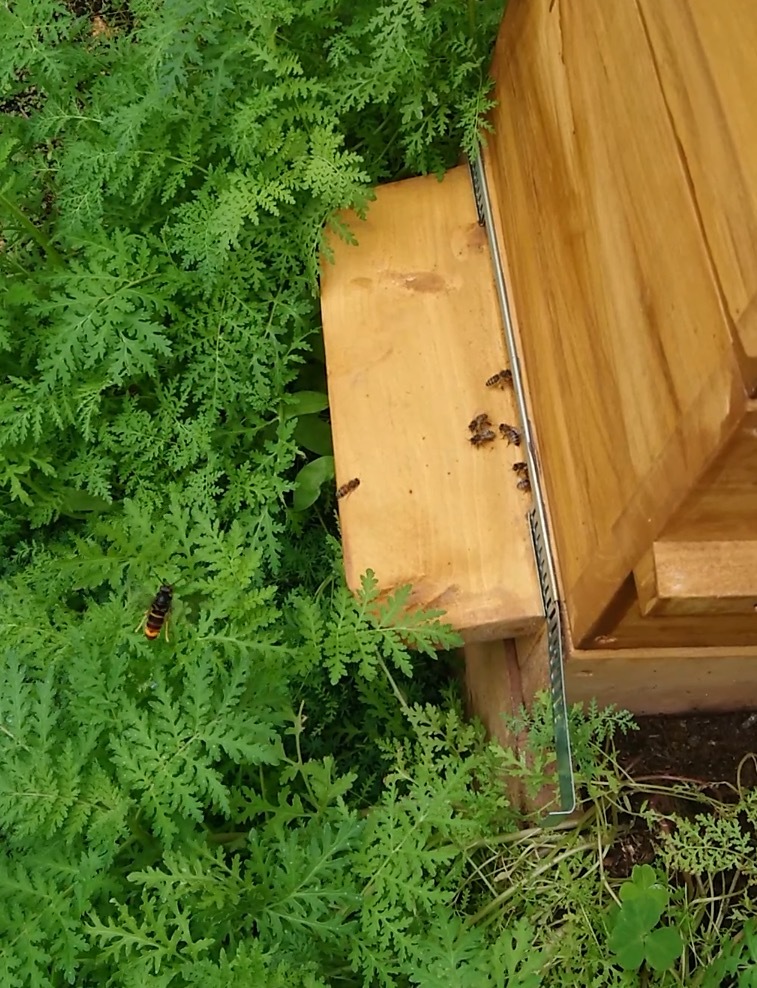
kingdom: Animalia
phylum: Arthropoda
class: Insecta
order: Hymenoptera
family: Vespidae
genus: Vespa
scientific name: Vespa velutina
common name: Asian hornet
